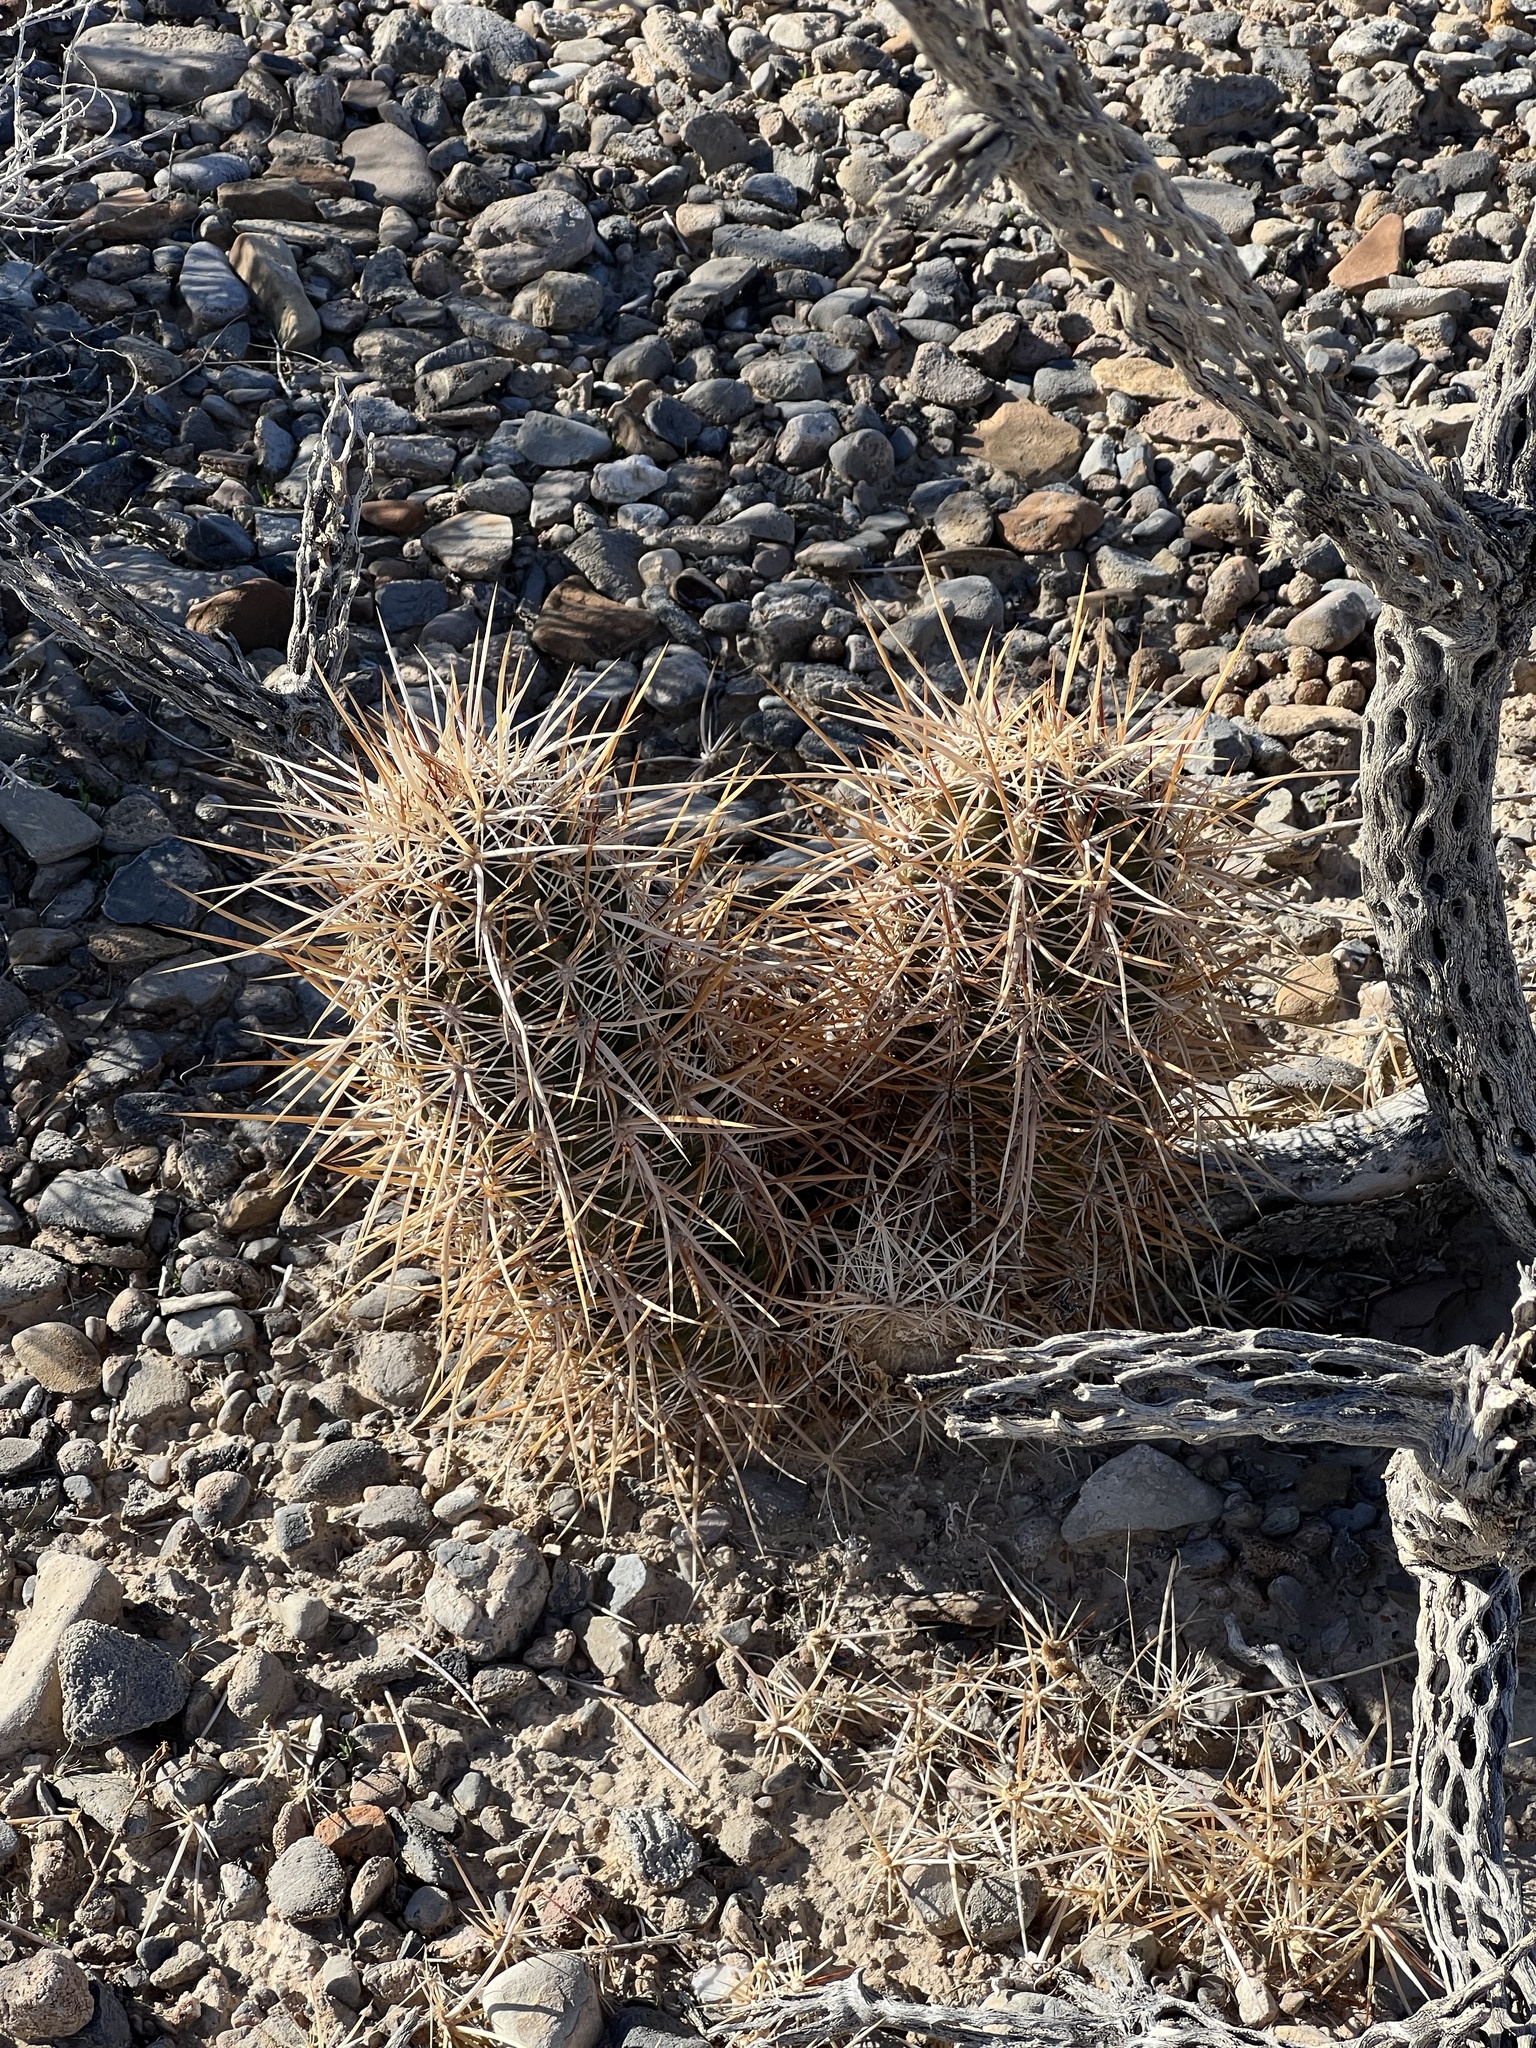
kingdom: Plantae
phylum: Tracheophyta
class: Magnoliopsida
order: Caryophyllales
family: Cactaceae
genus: Echinocereus
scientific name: Echinocereus engelmannii
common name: Engelmann's hedgehog cactus
